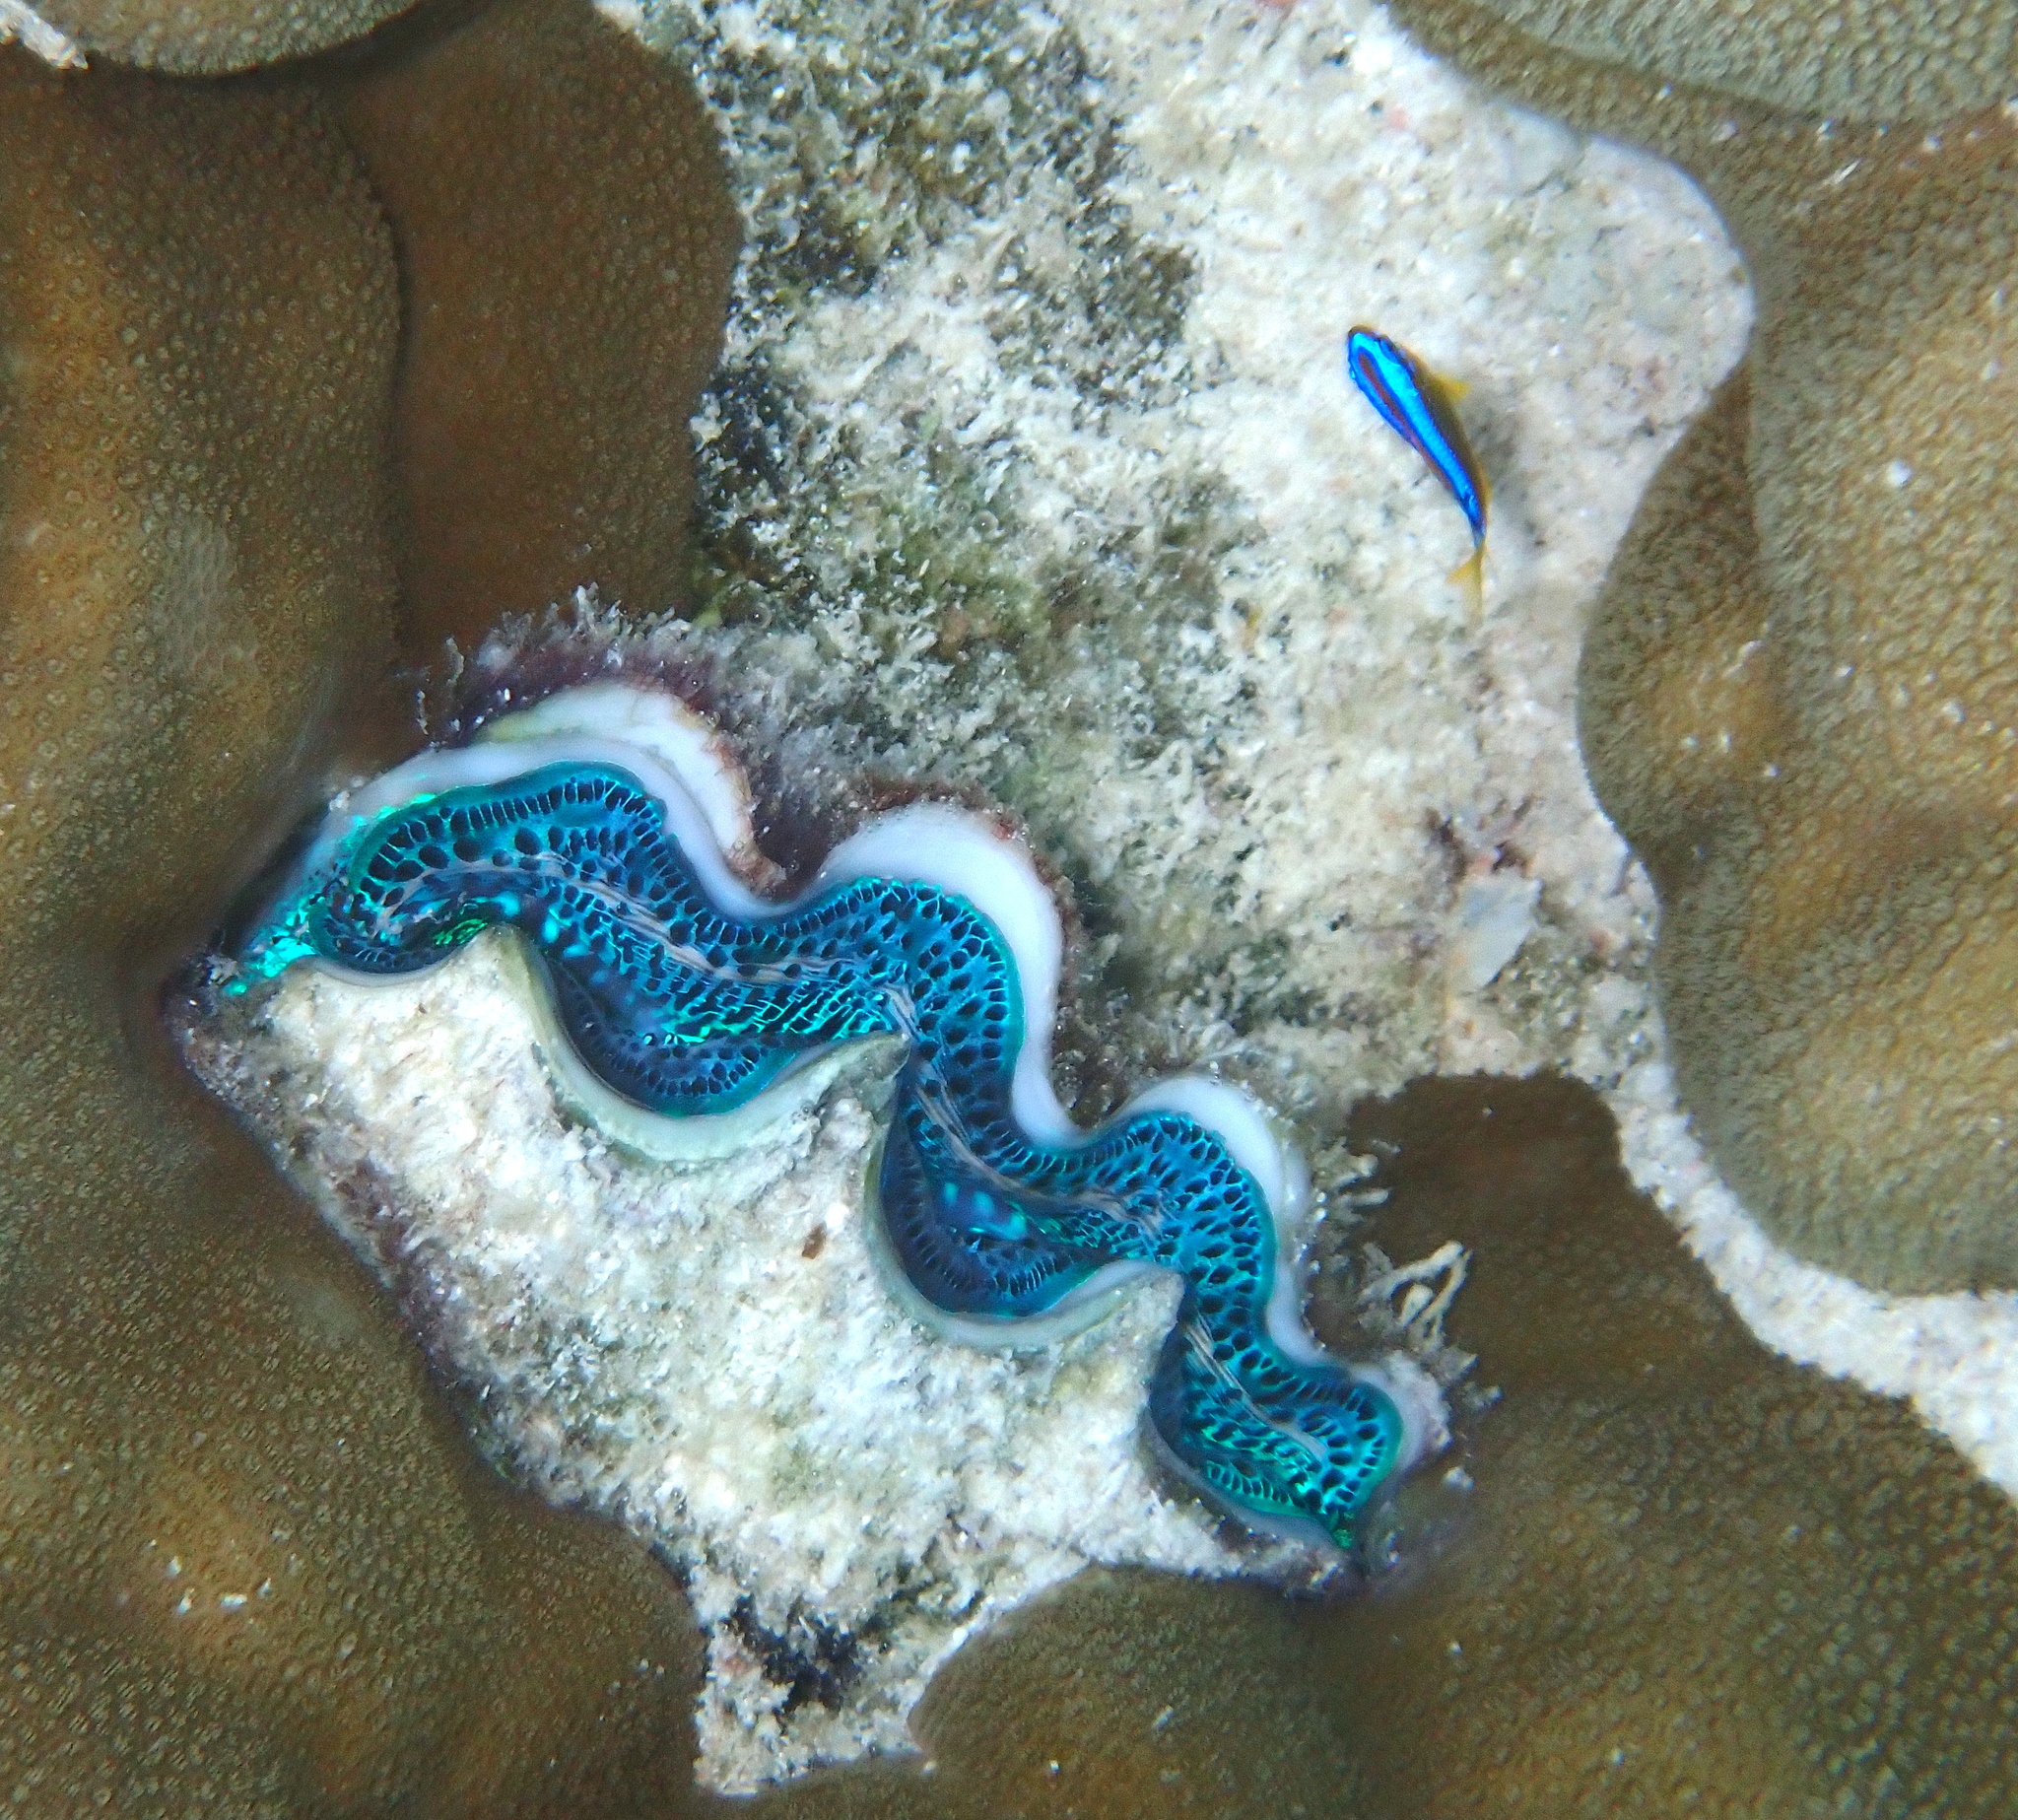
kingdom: Animalia
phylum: Mollusca
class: Bivalvia
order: Cardiida
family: Cardiidae
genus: Tridacna
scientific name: Tridacna maxima
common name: Small giant clam
